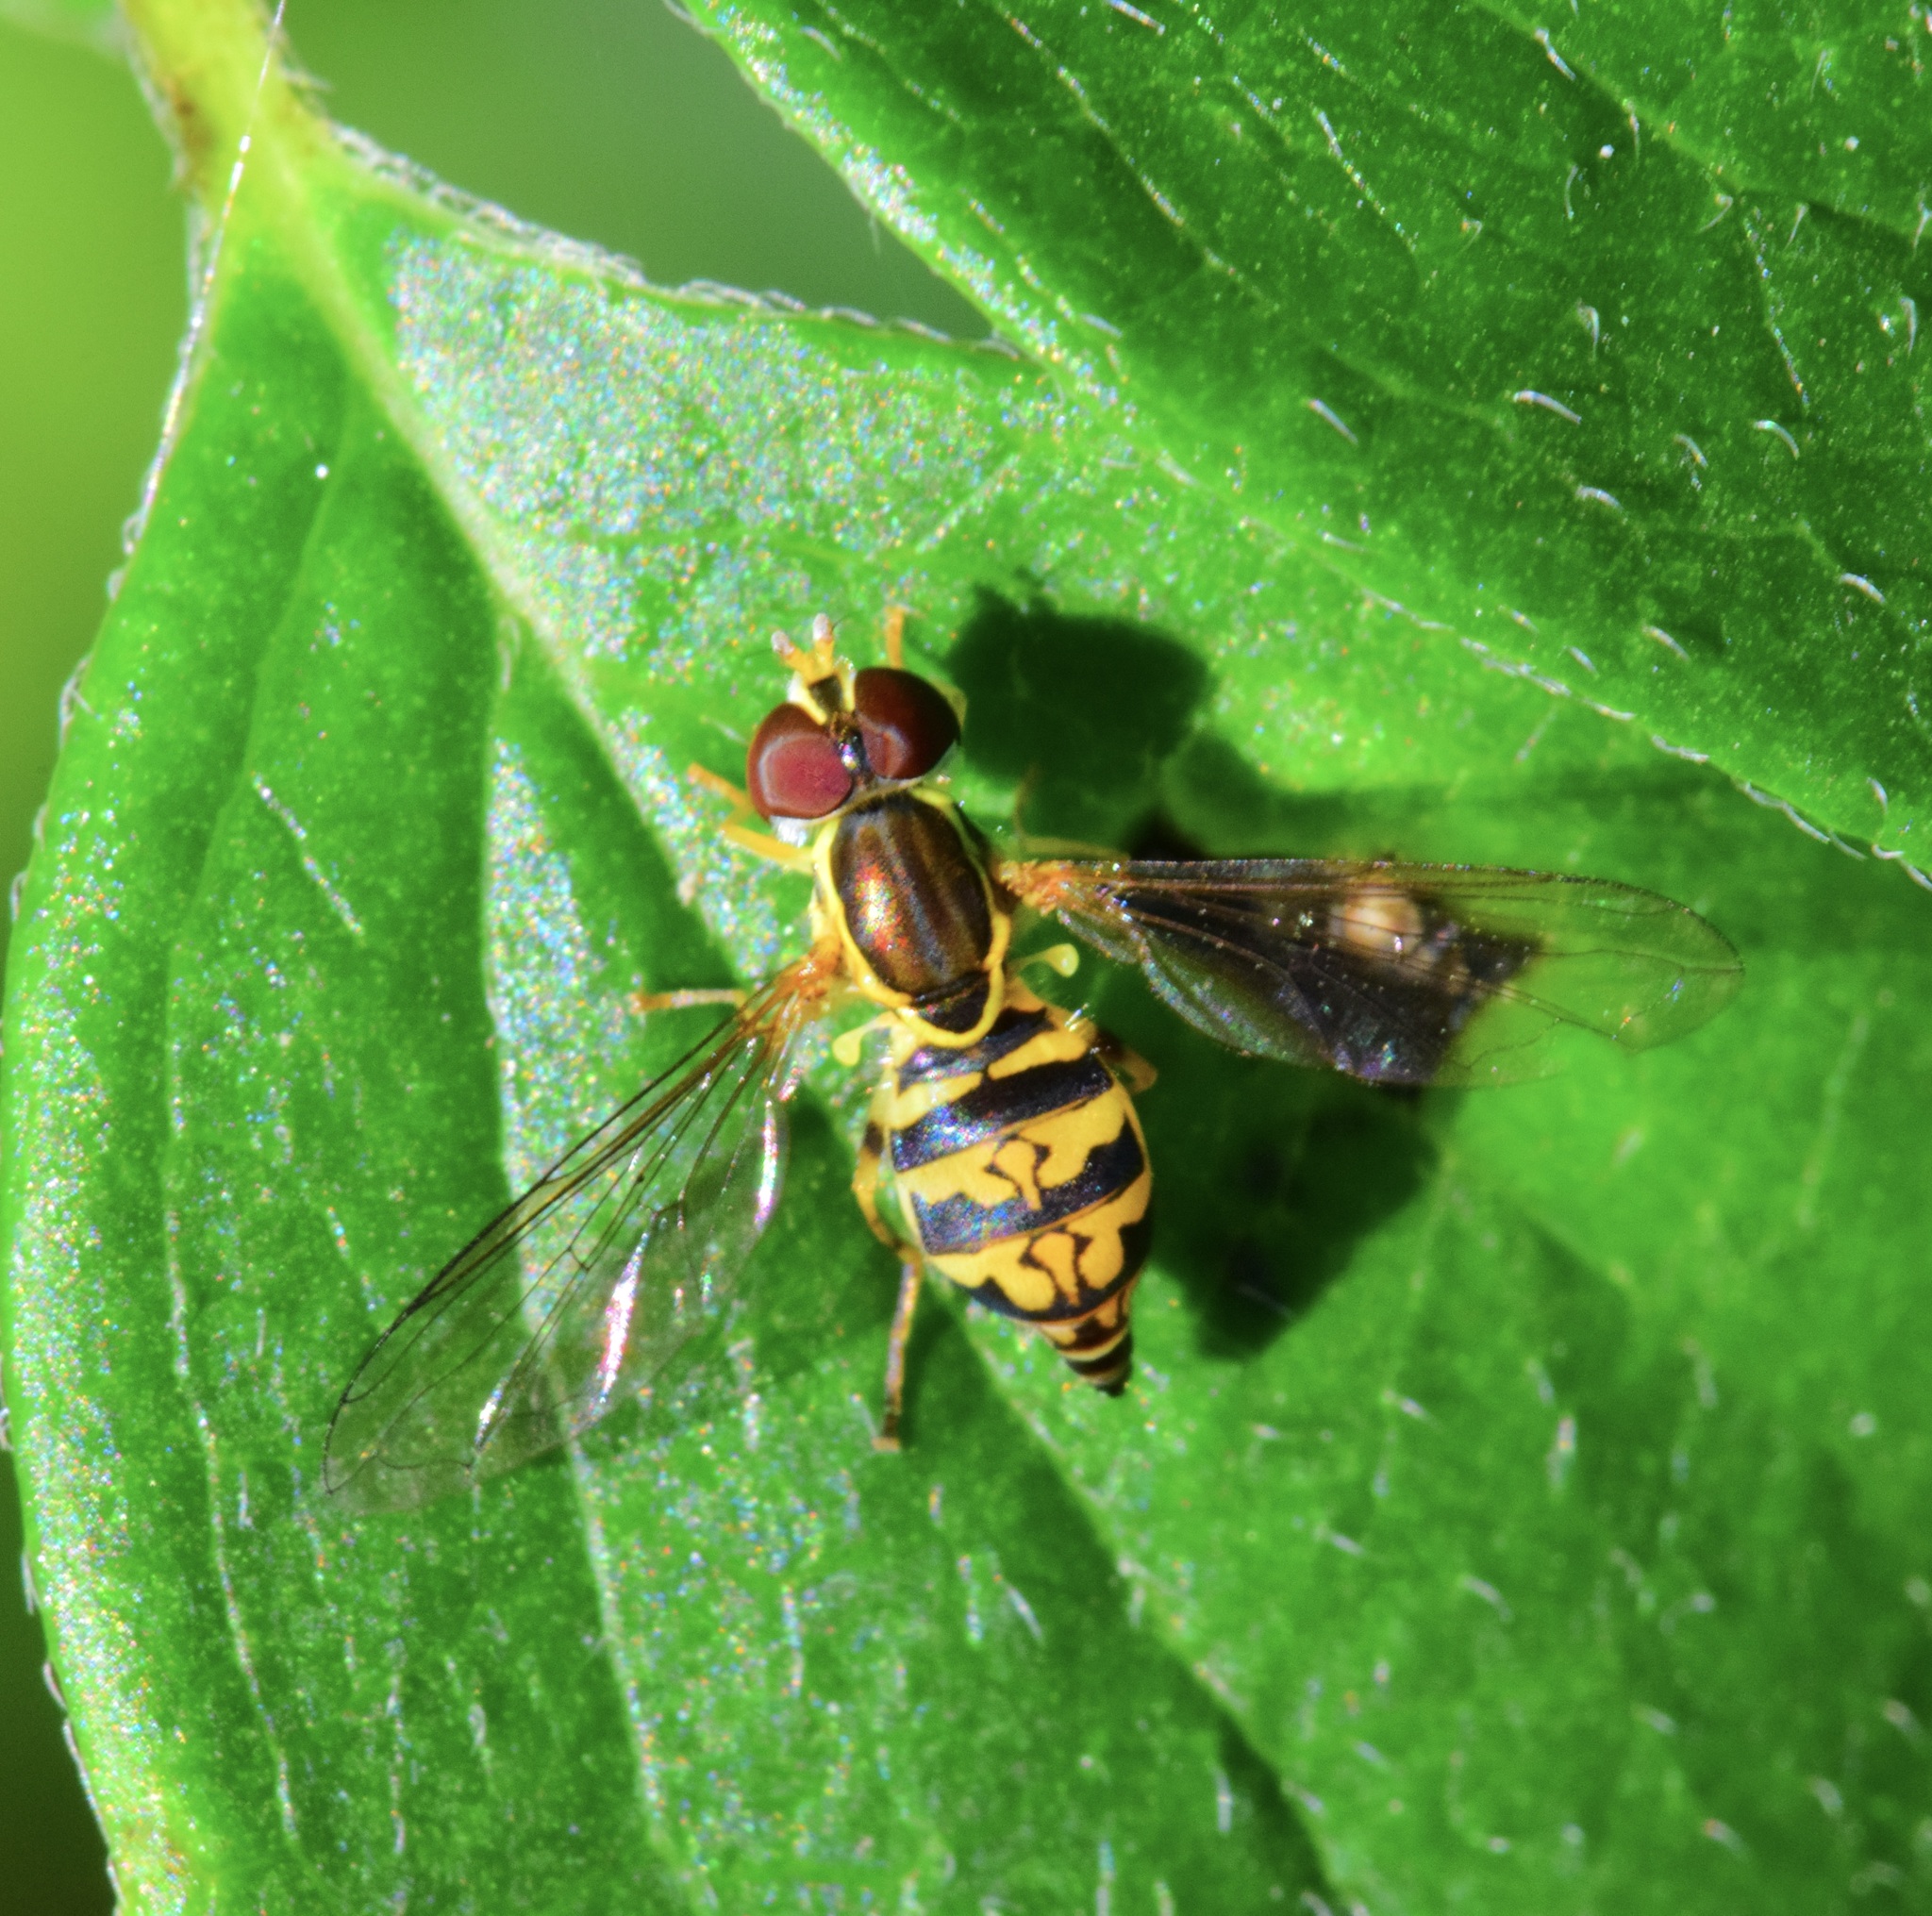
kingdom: Animalia
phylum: Arthropoda
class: Insecta
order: Diptera
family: Syrphidae
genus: Toxomerus
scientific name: Toxomerus geminatus
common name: Eastern calligrapher
